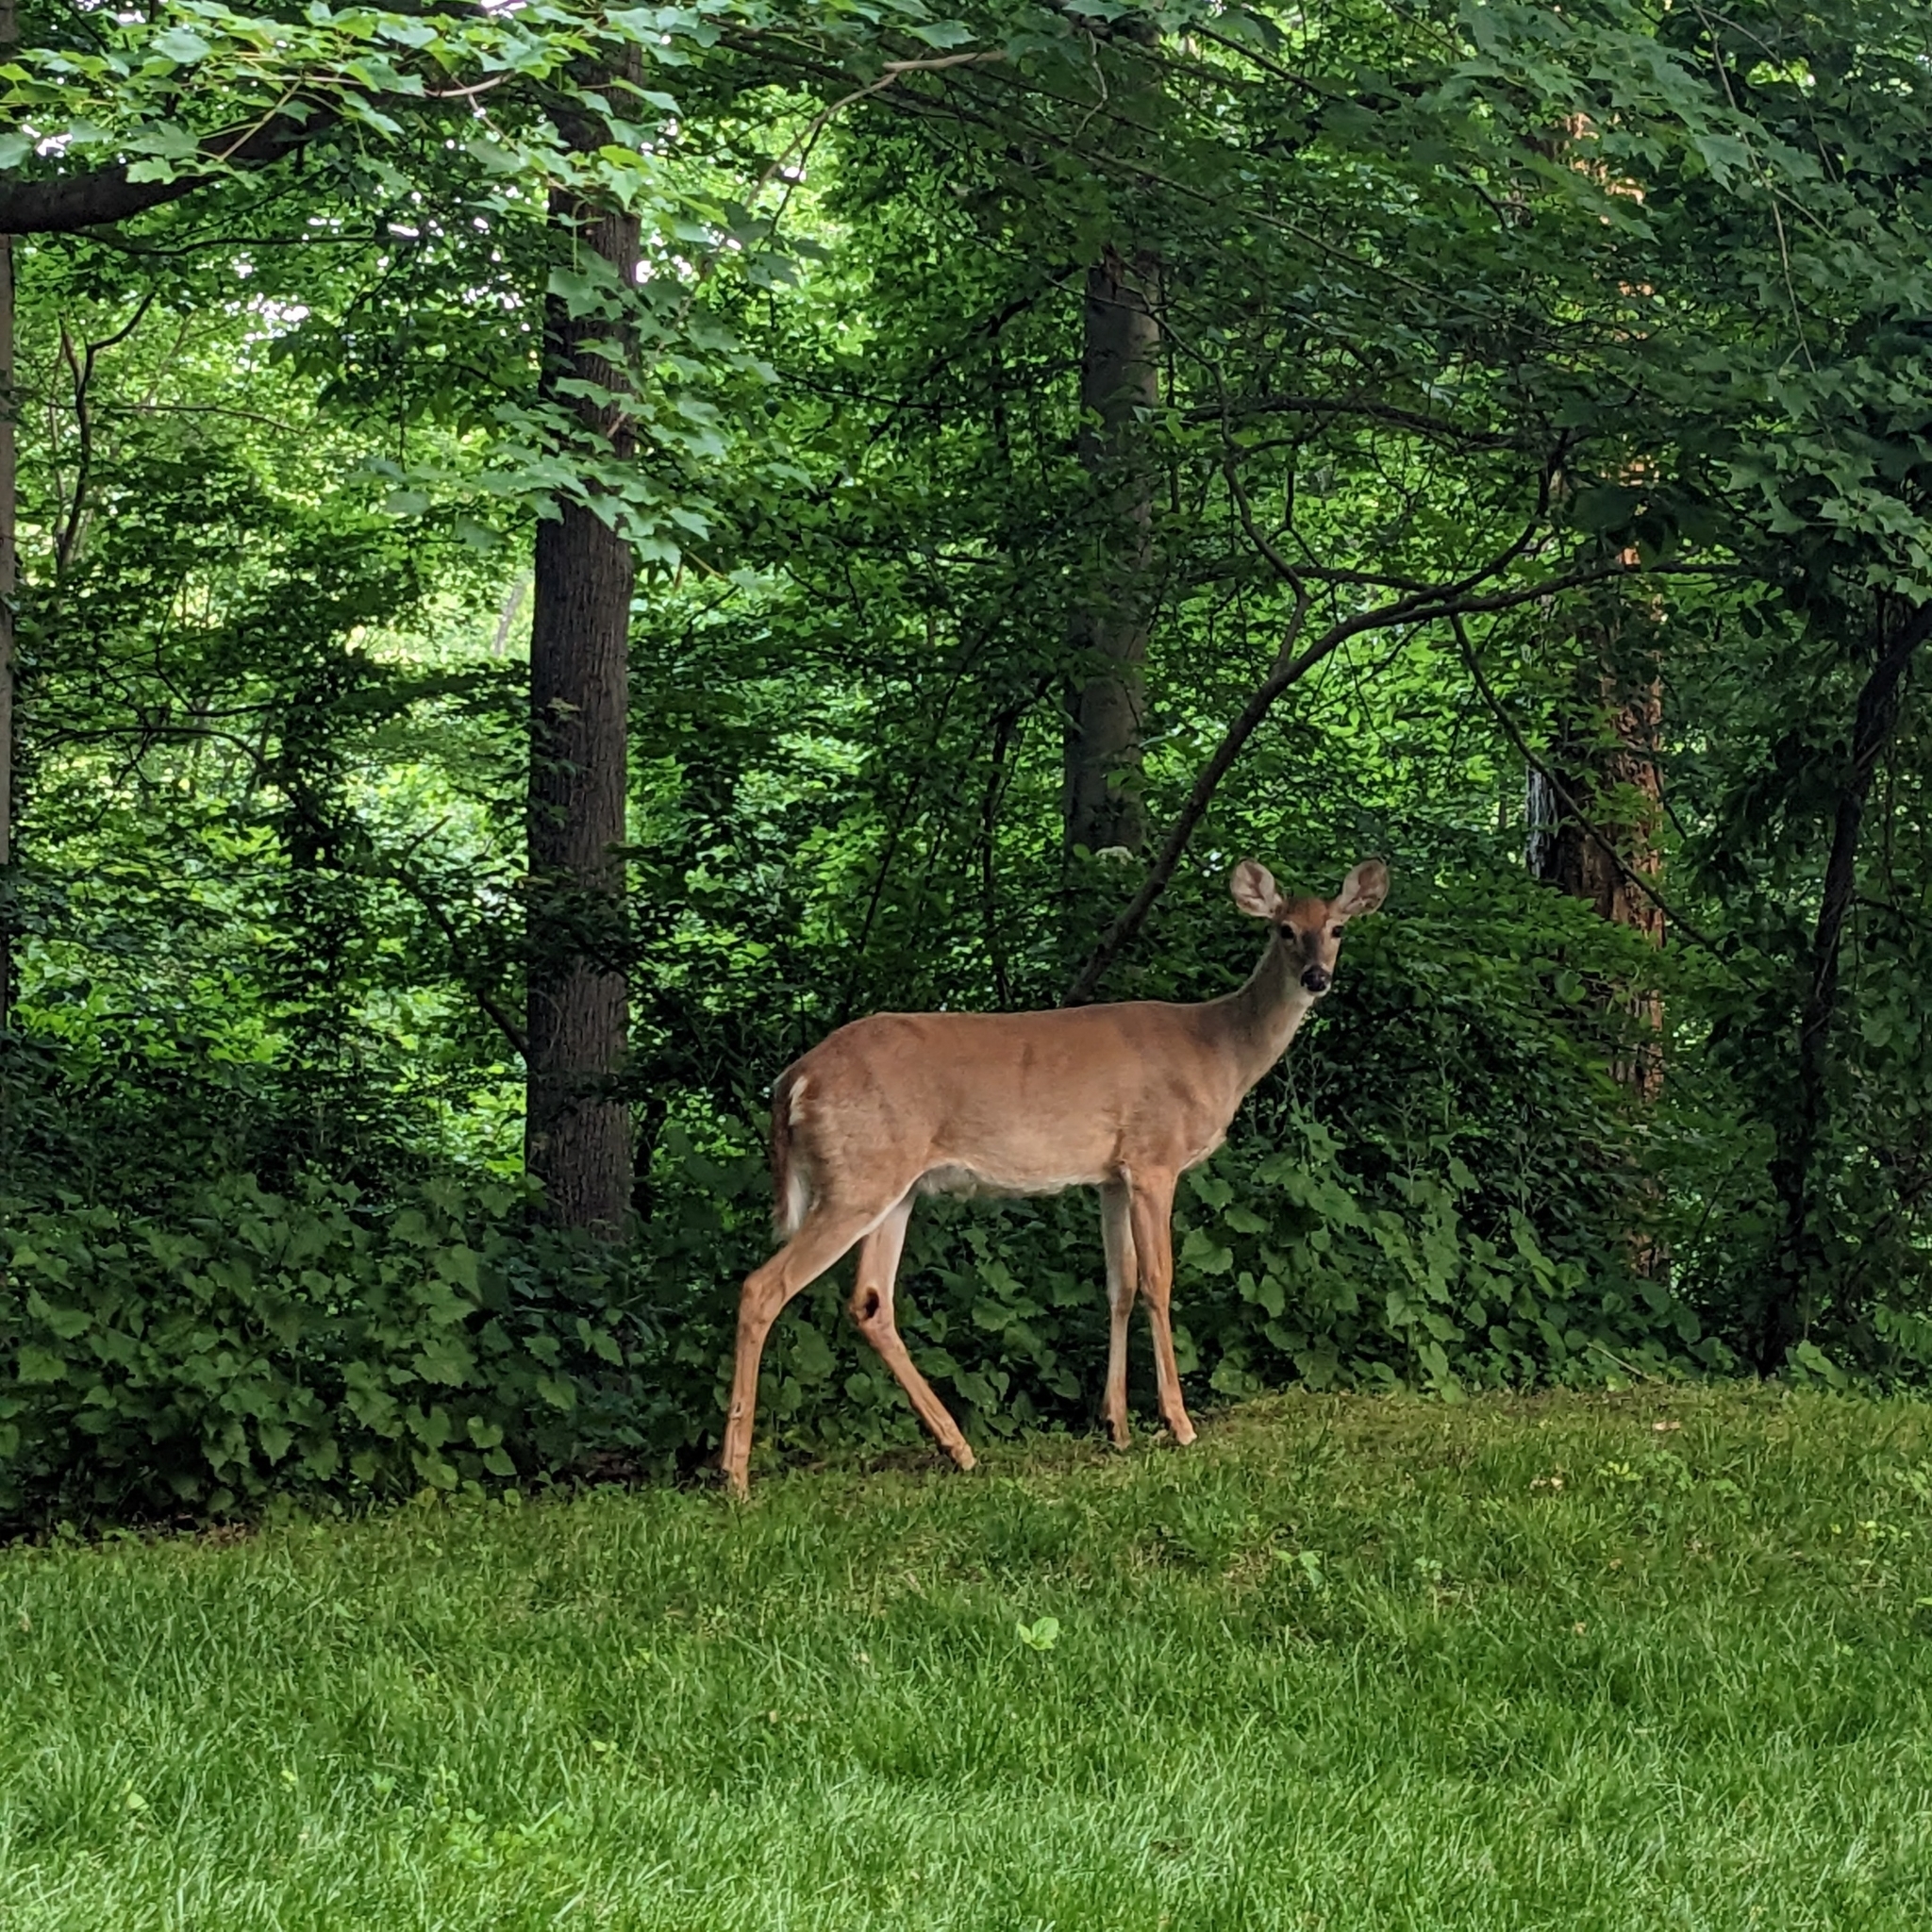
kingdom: Animalia
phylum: Chordata
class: Mammalia
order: Artiodactyla
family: Cervidae
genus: Odocoileus
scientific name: Odocoileus virginianus
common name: White-tailed deer
